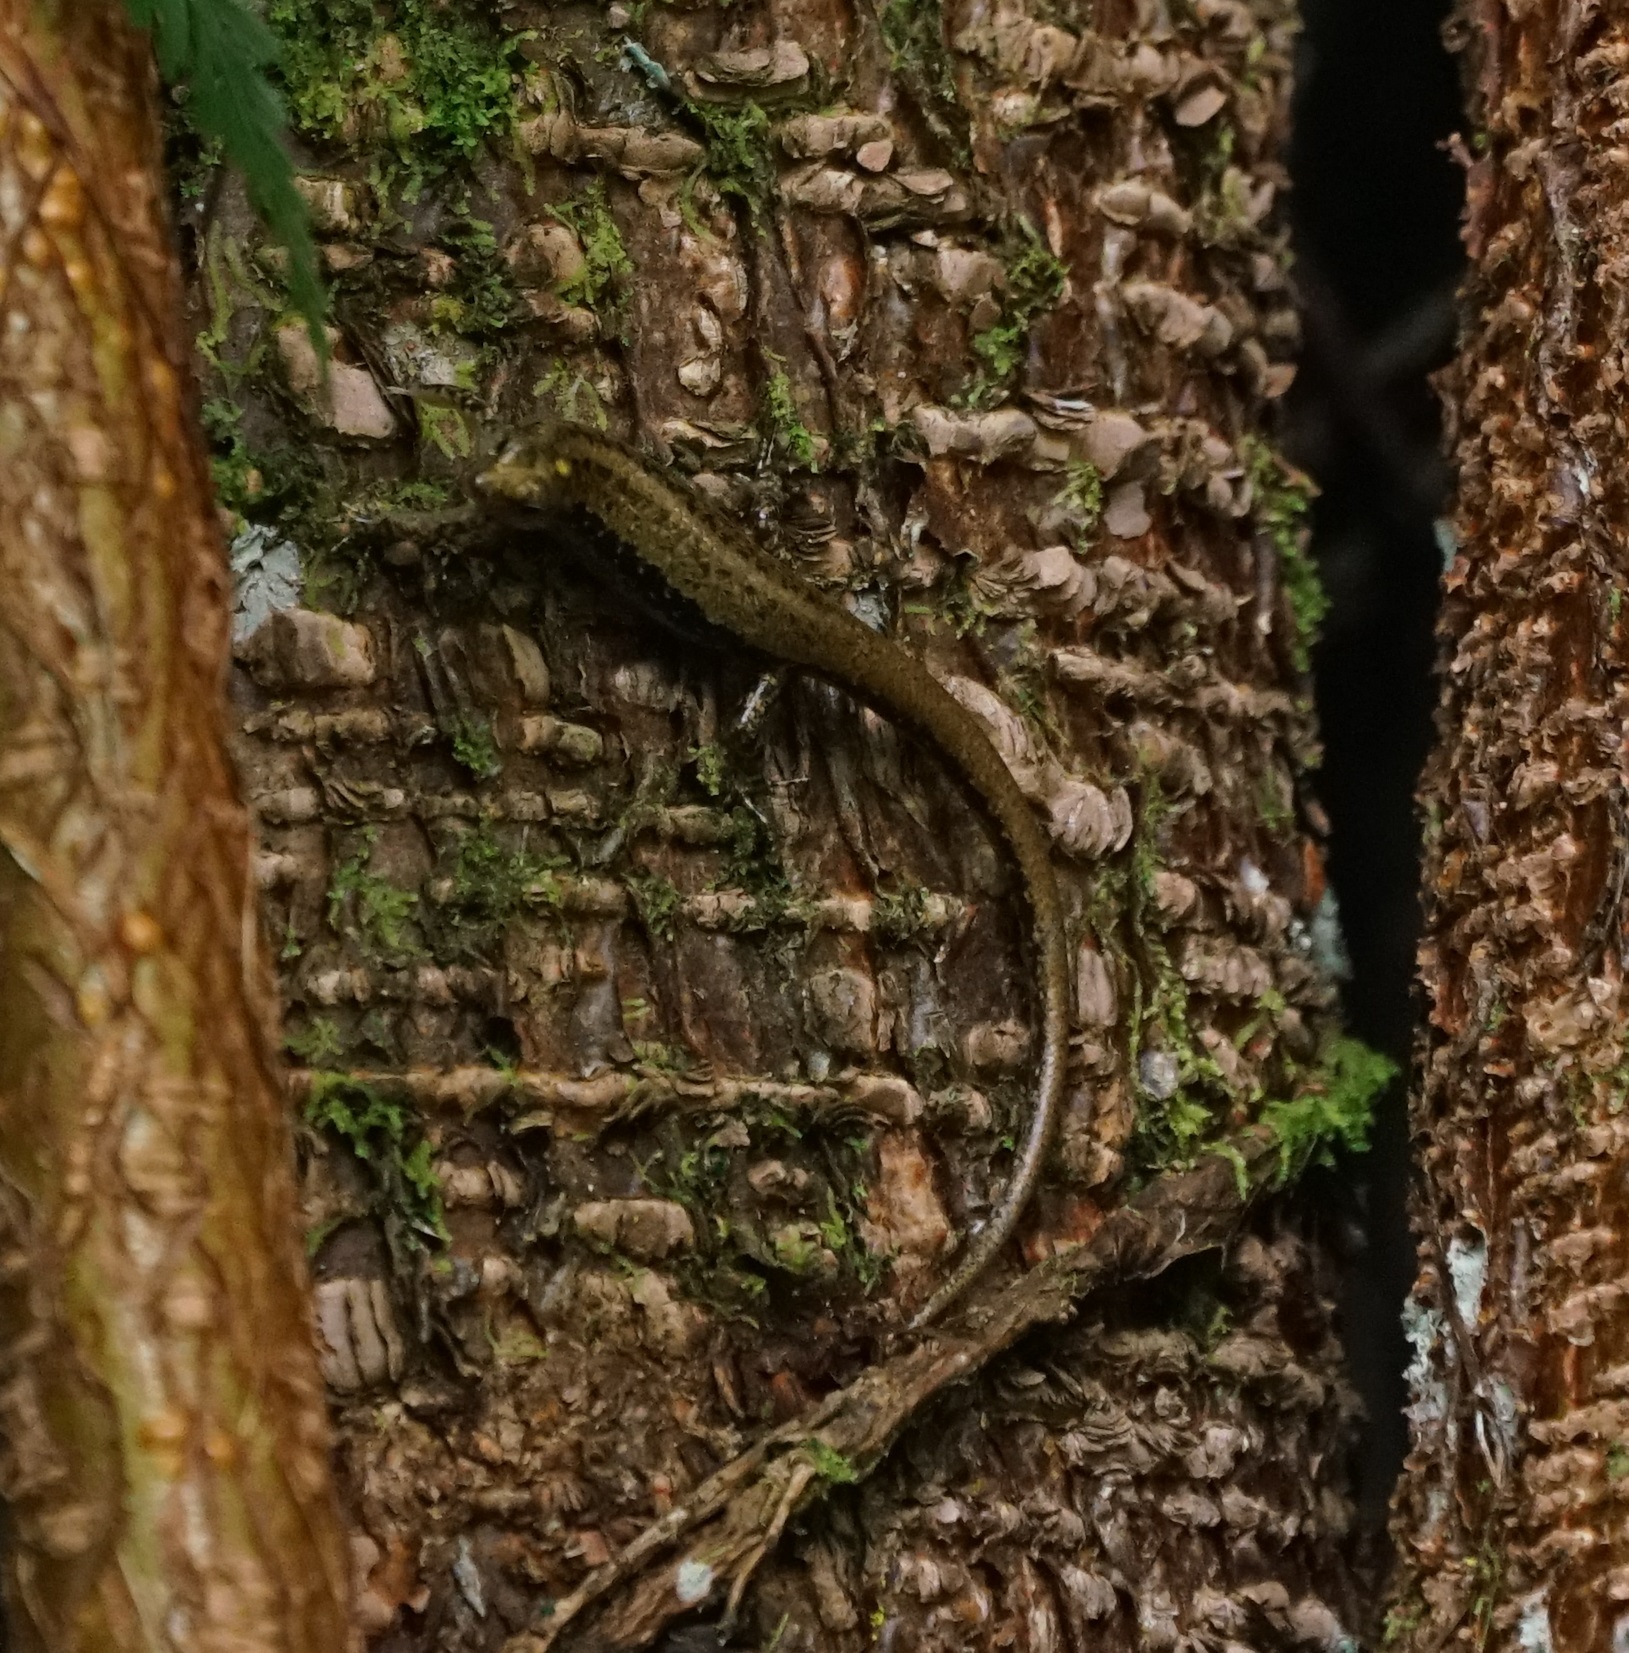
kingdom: Animalia
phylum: Chordata
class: Squamata
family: Scincidae
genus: Ornithuroscincus
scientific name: Ornithuroscincus noctua
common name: Moth skink
